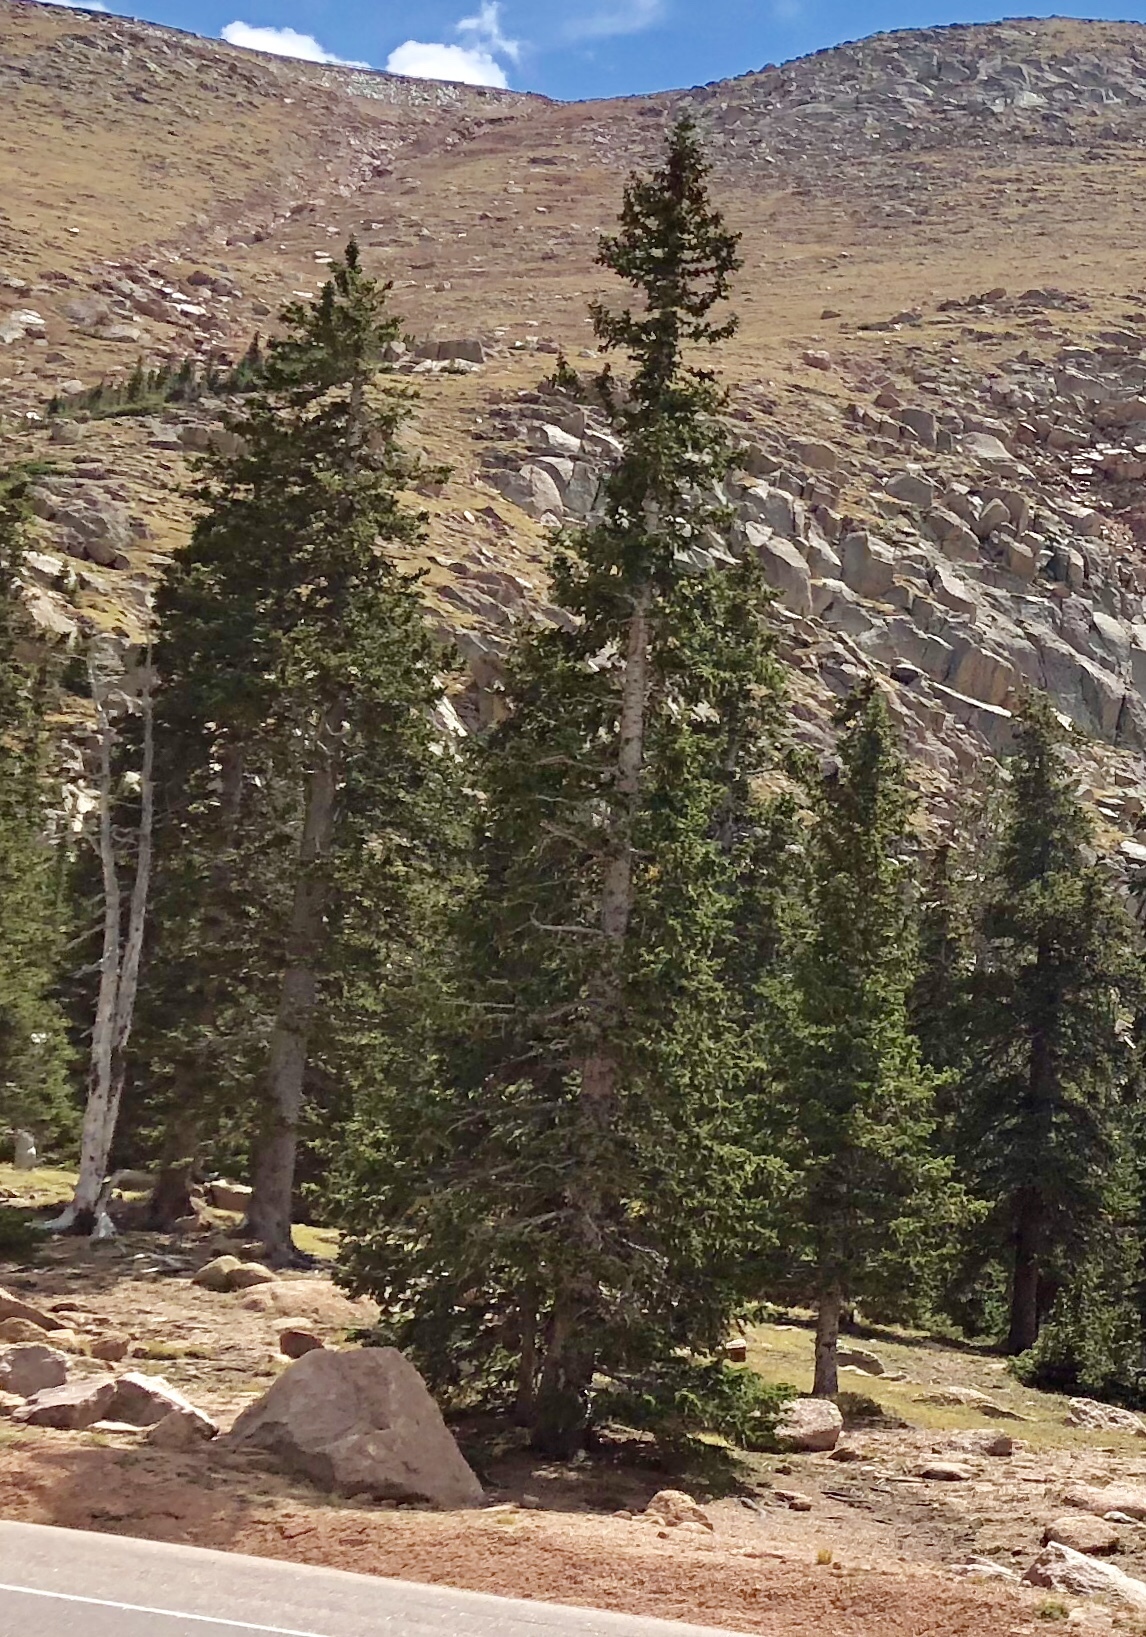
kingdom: Plantae
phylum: Tracheophyta
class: Pinopsida
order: Pinales
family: Pinaceae
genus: Picea
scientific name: Picea engelmannii
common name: Engelmann spruce
